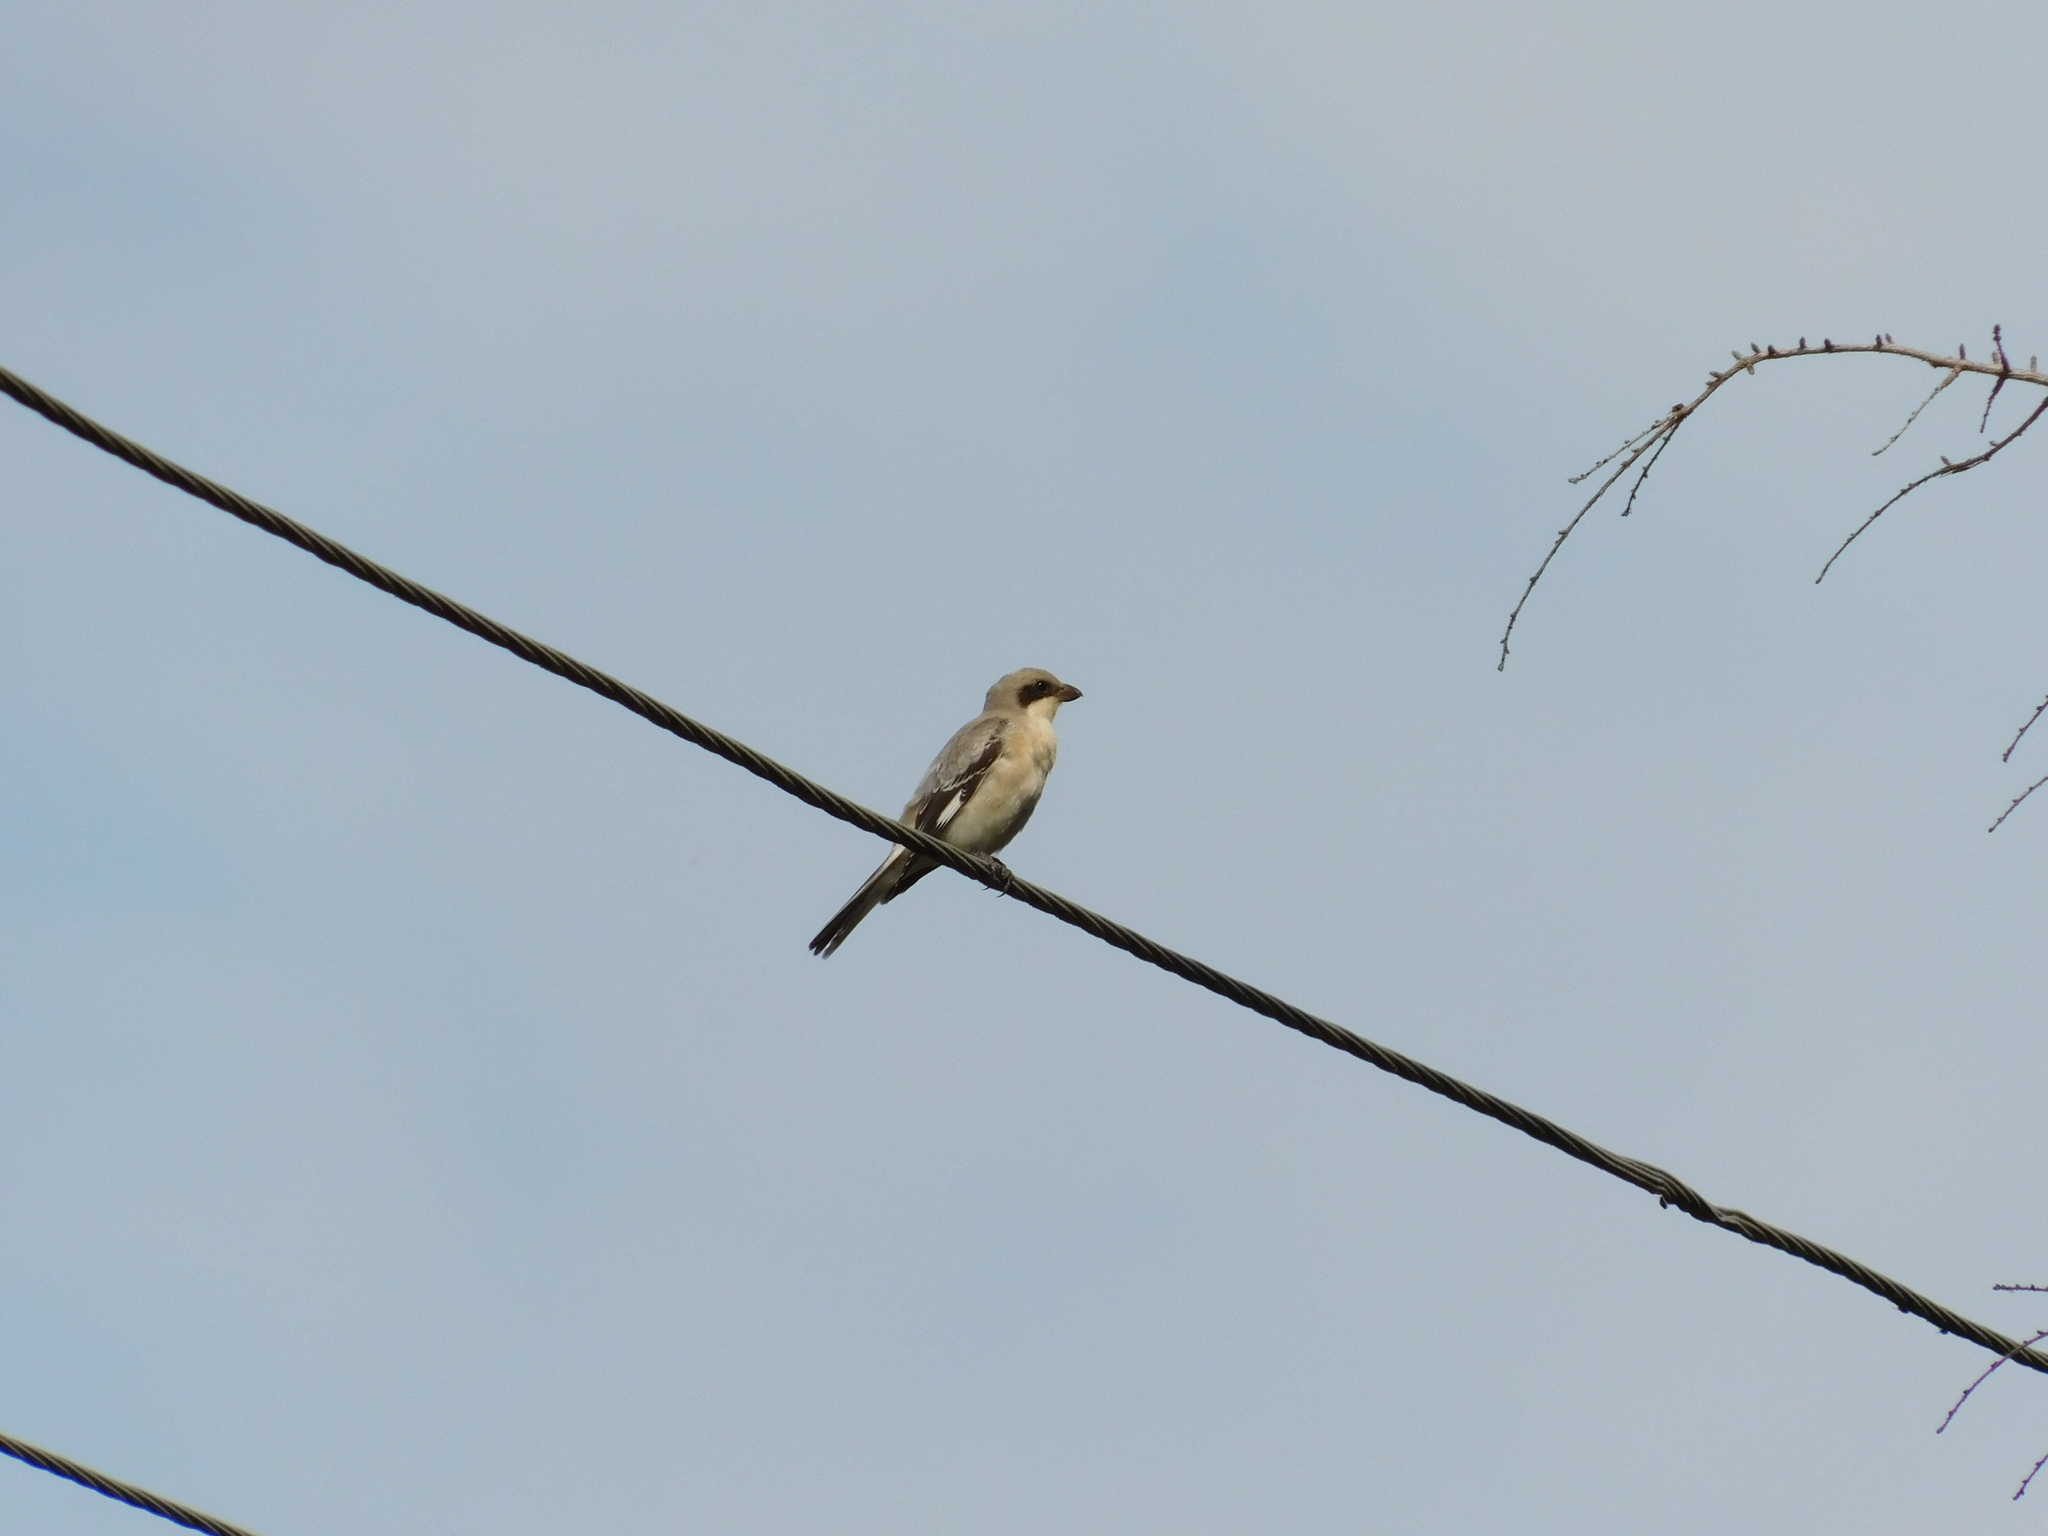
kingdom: Animalia
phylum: Chordata
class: Aves
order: Passeriformes
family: Laniidae
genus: Lanius
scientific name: Lanius minor
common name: Lesser grey shrike
